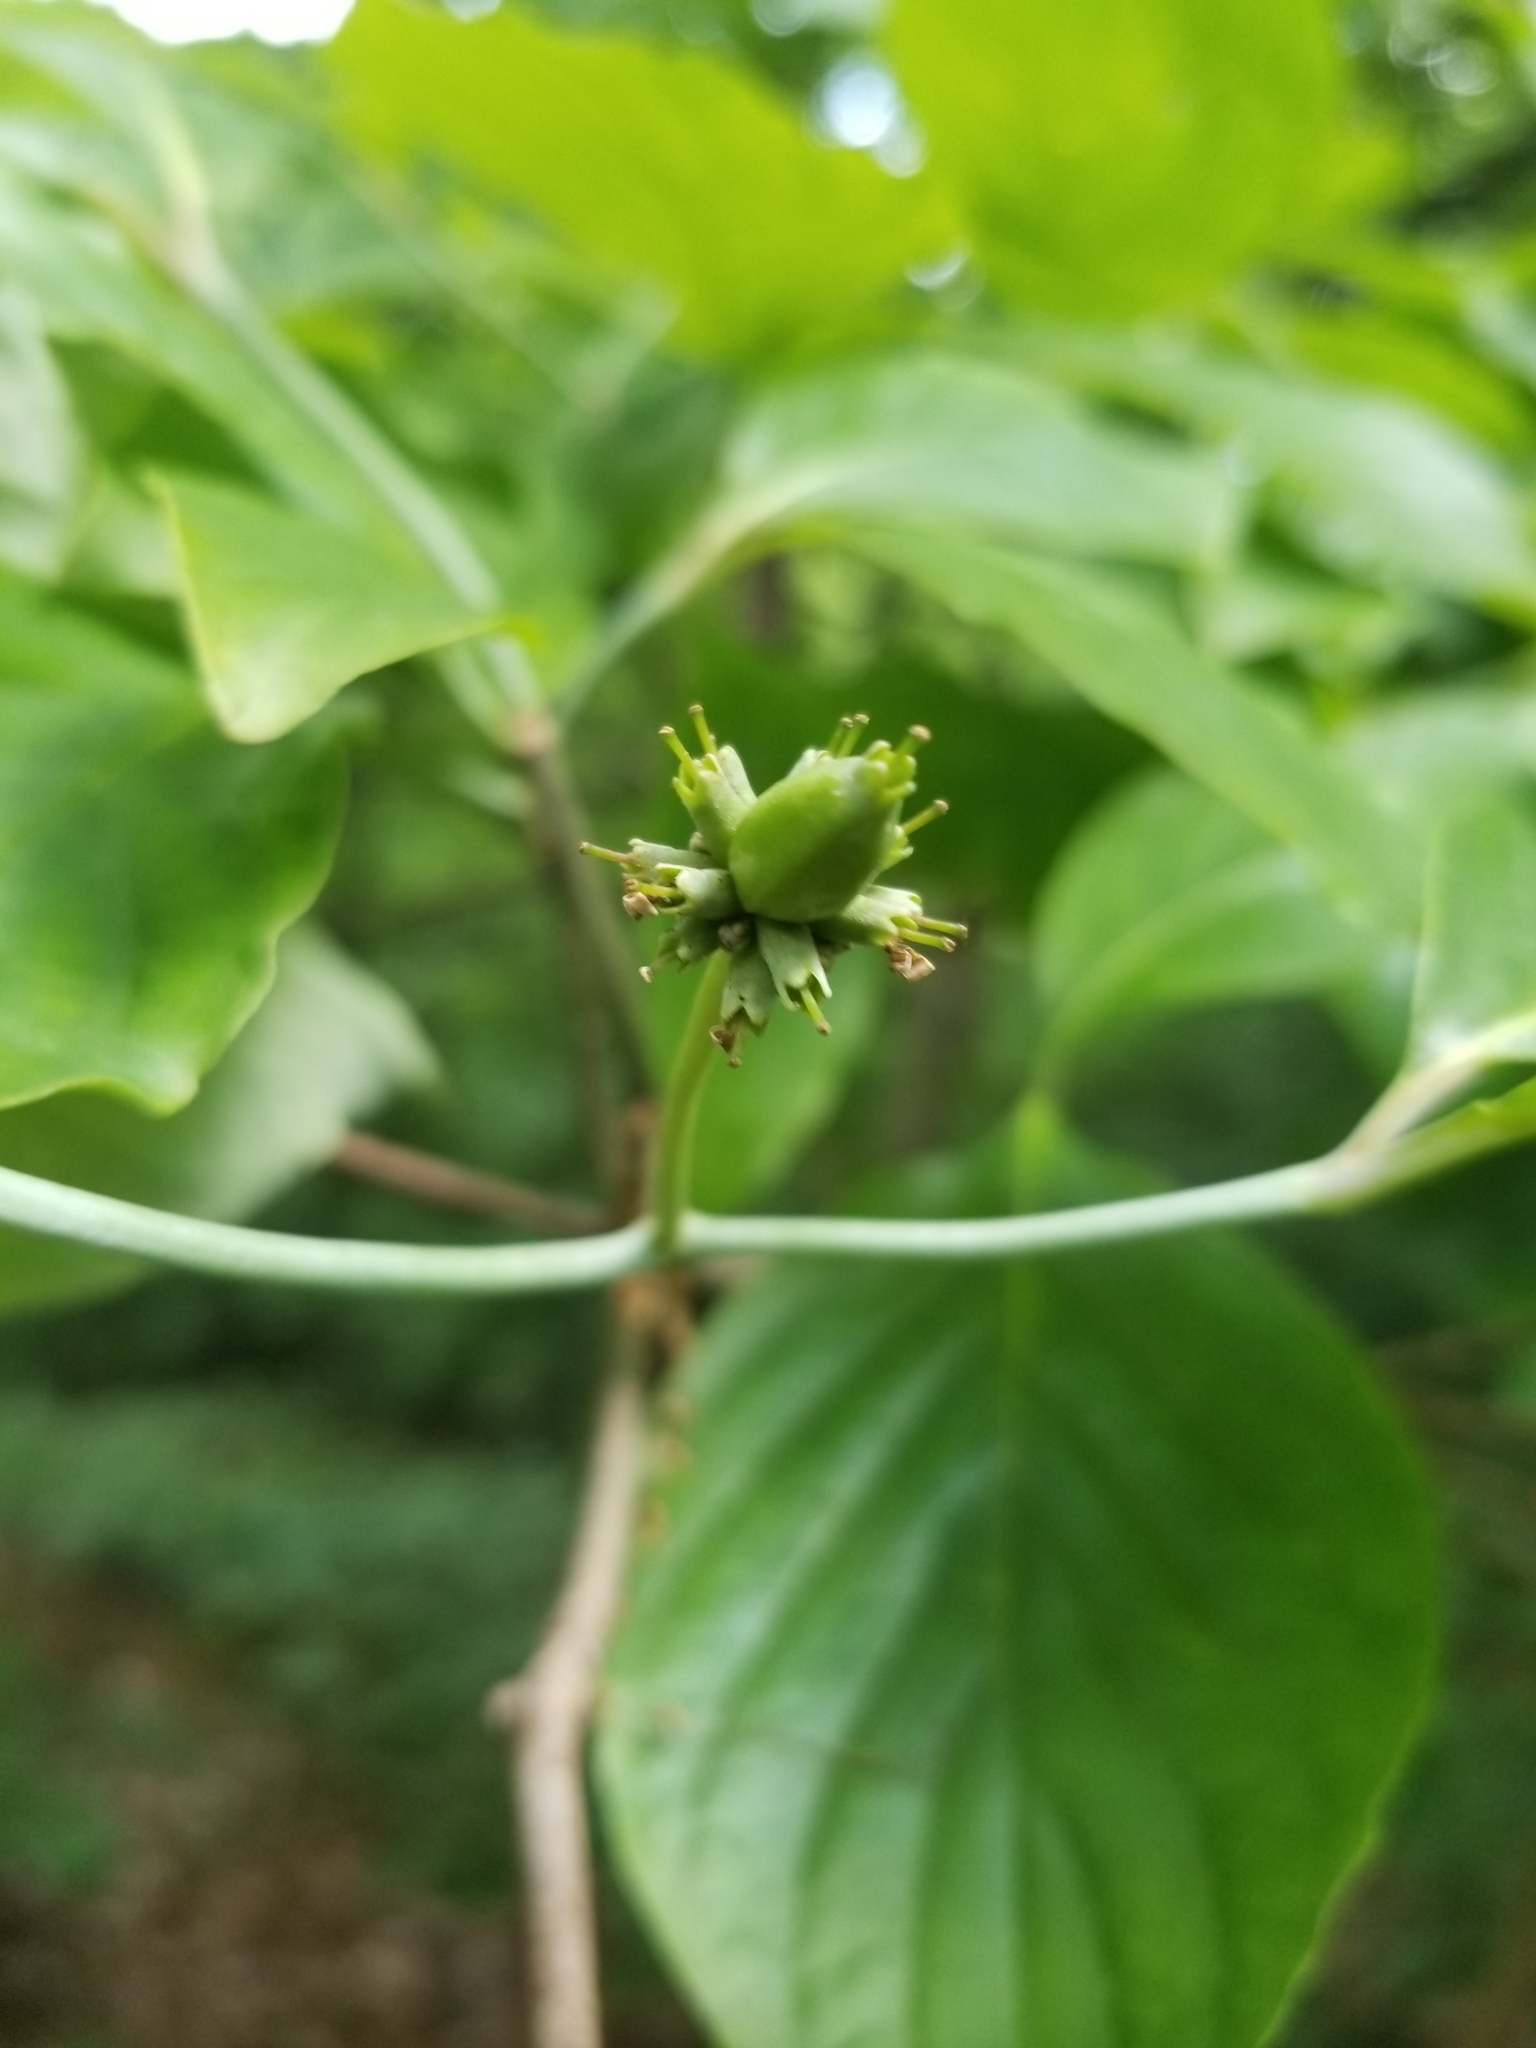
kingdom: Plantae
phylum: Tracheophyta
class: Magnoliopsida
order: Cornales
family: Cornaceae
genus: Cornus
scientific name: Cornus florida
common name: Flowering dogwood
